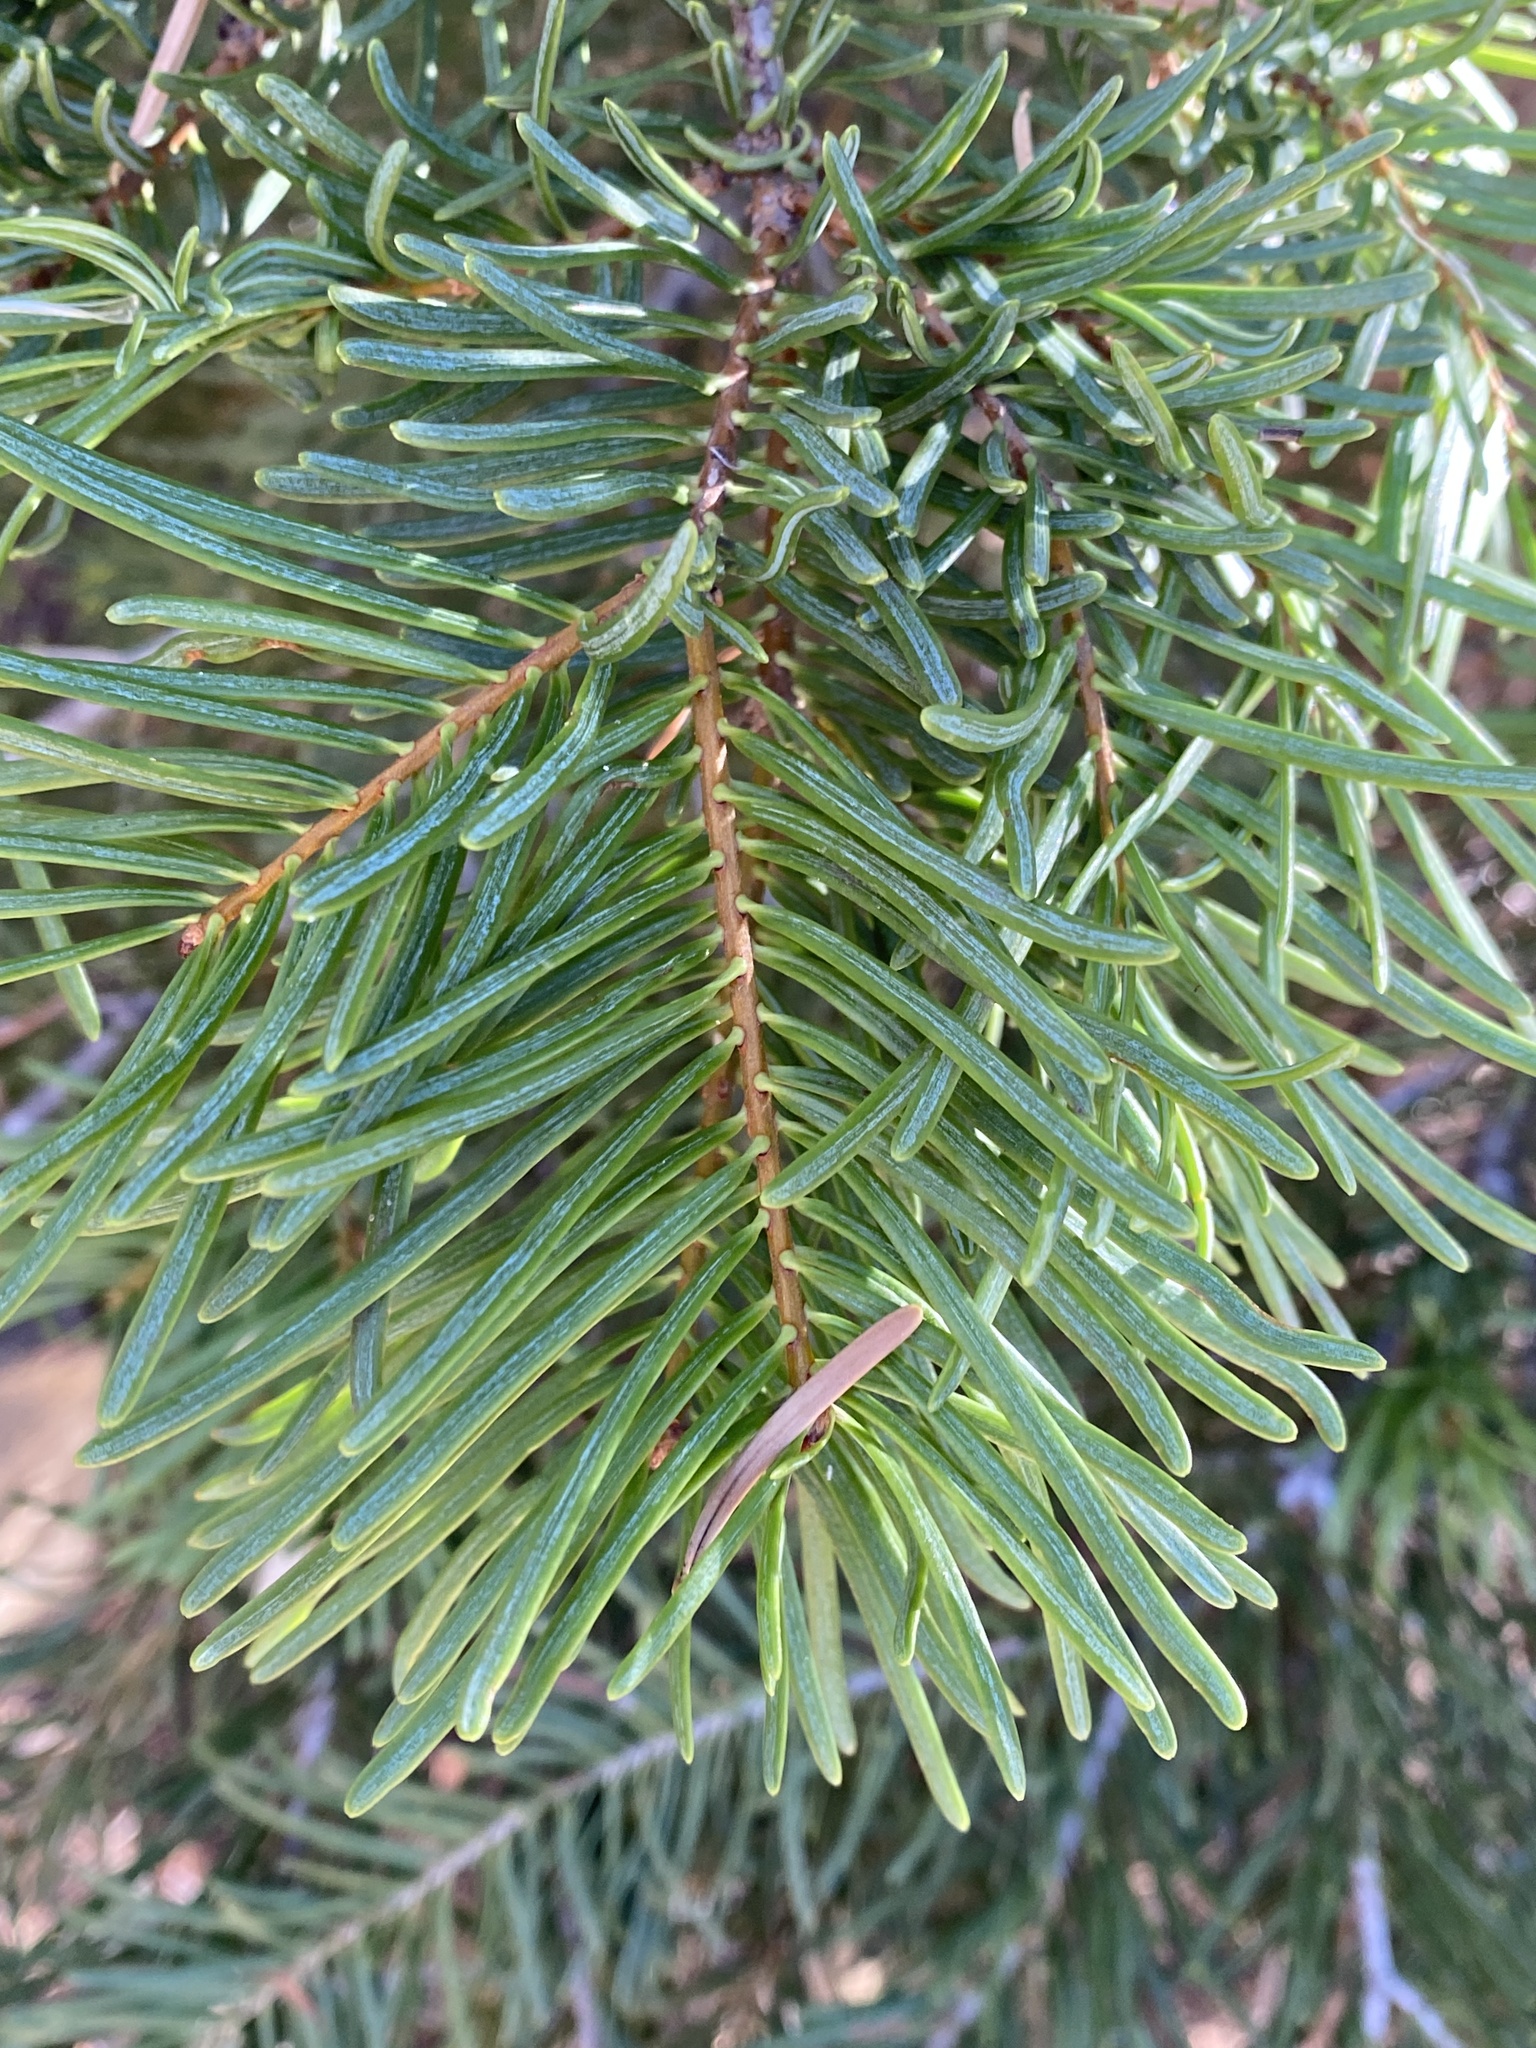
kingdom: Plantae
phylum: Tracheophyta
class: Pinopsida
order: Pinales
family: Pinaceae
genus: Abies
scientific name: Abies concolor
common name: Colorado fir
